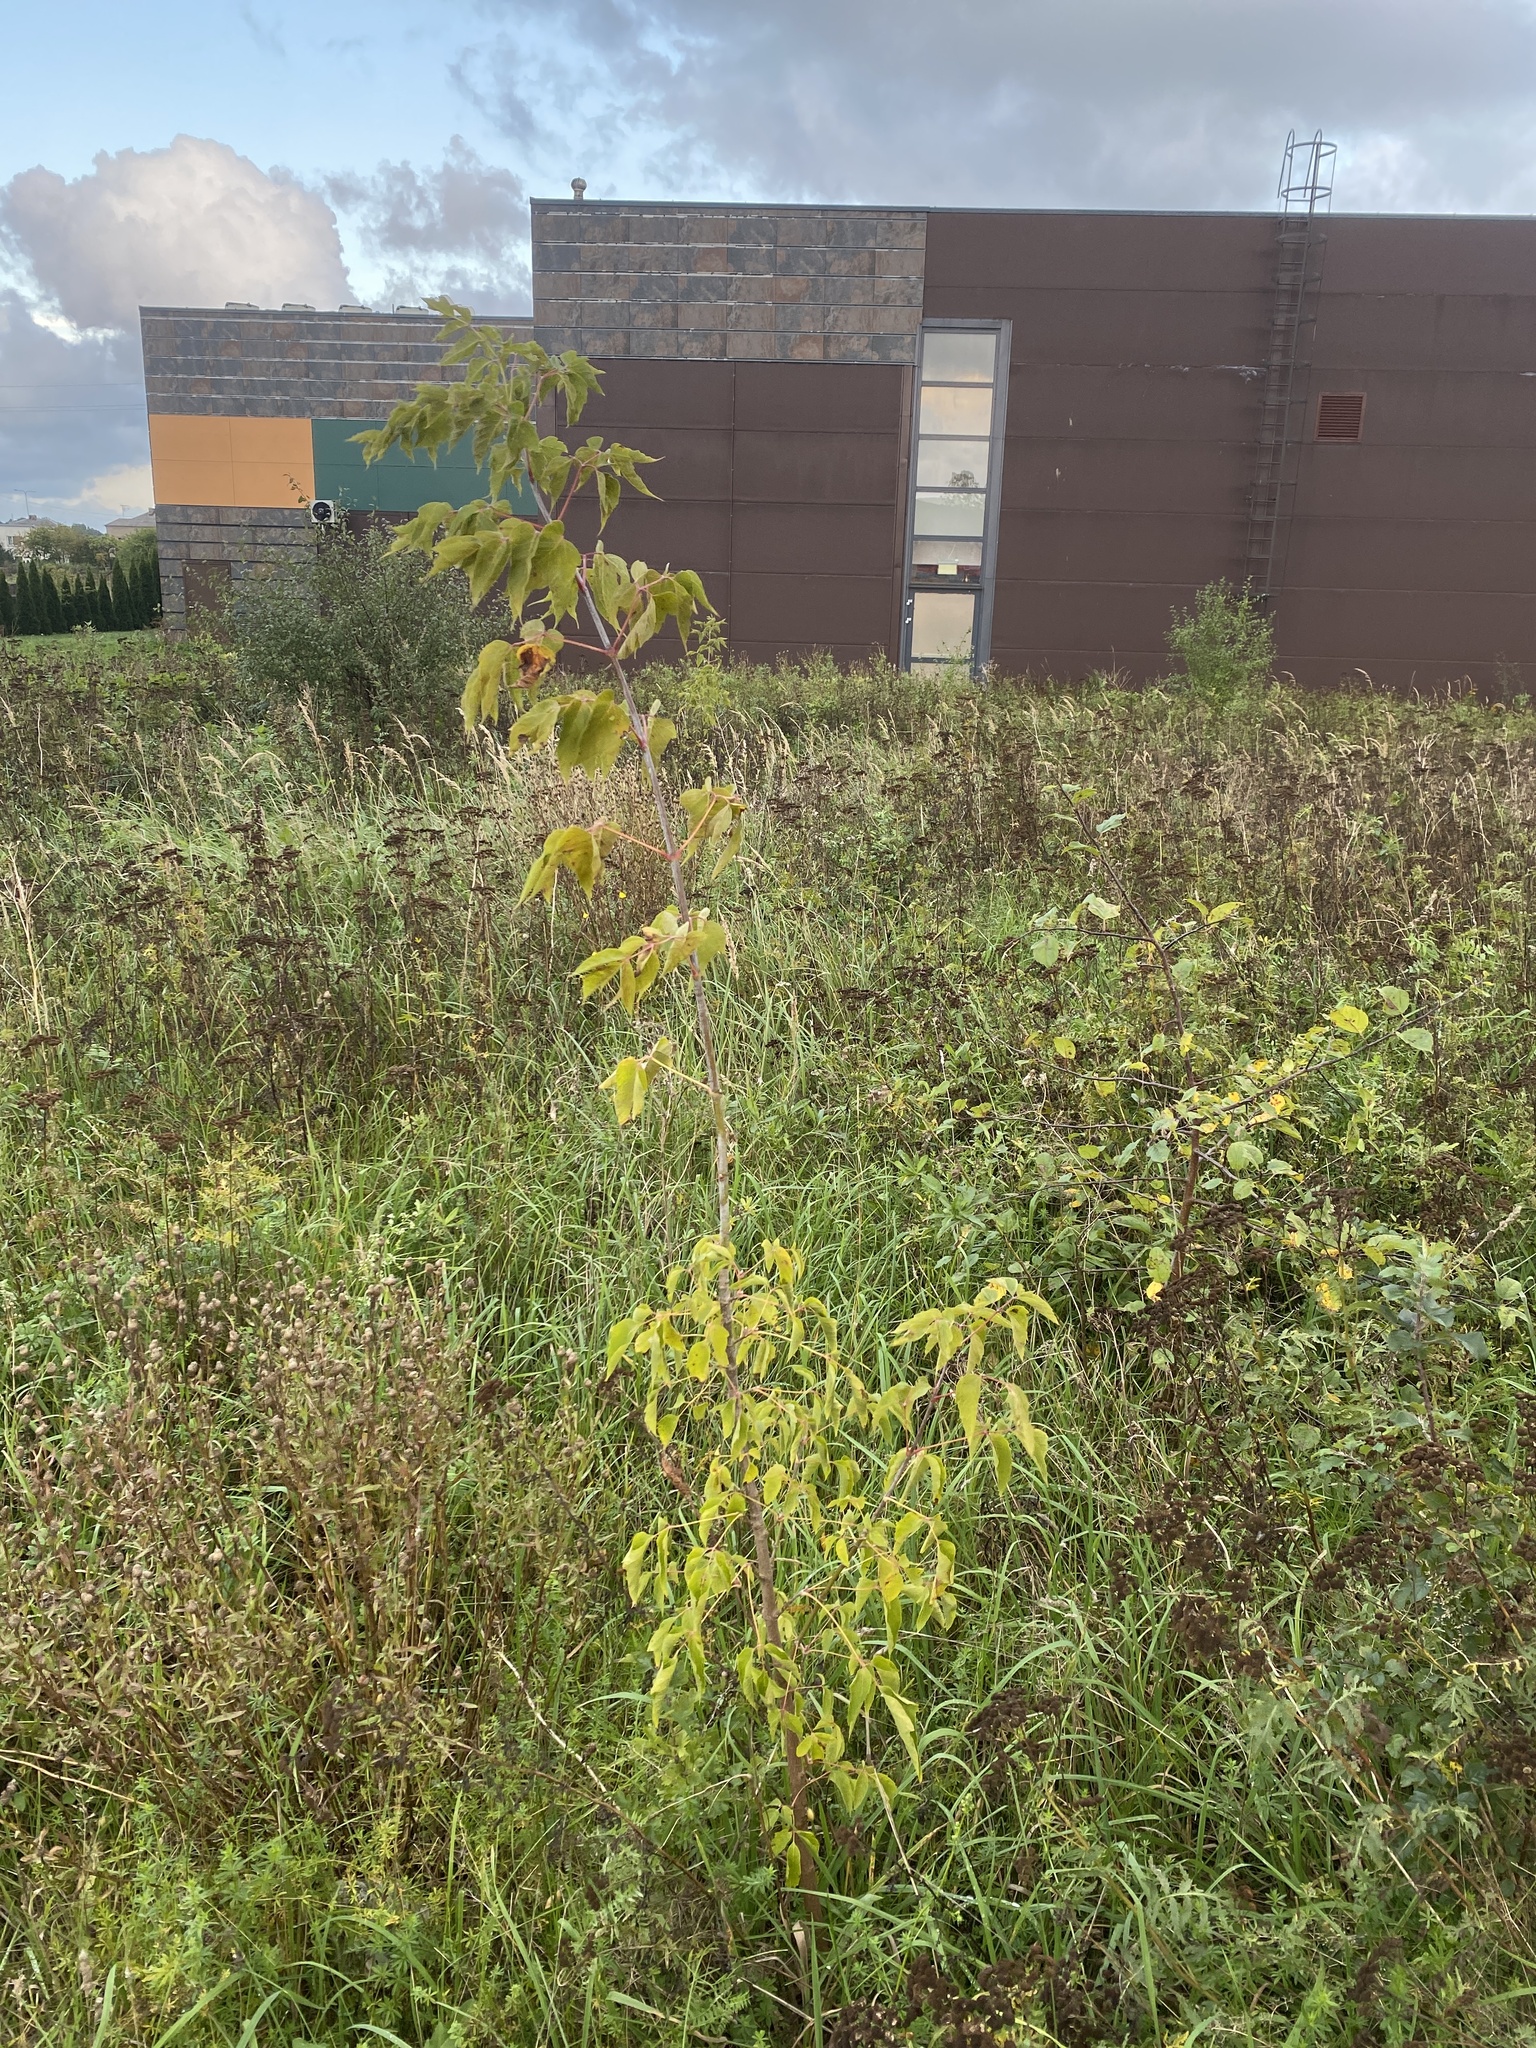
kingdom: Plantae
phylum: Tracheophyta
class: Magnoliopsida
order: Sapindales
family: Sapindaceae
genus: Acer
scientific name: Acer negundo
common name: Ashleaf maple
